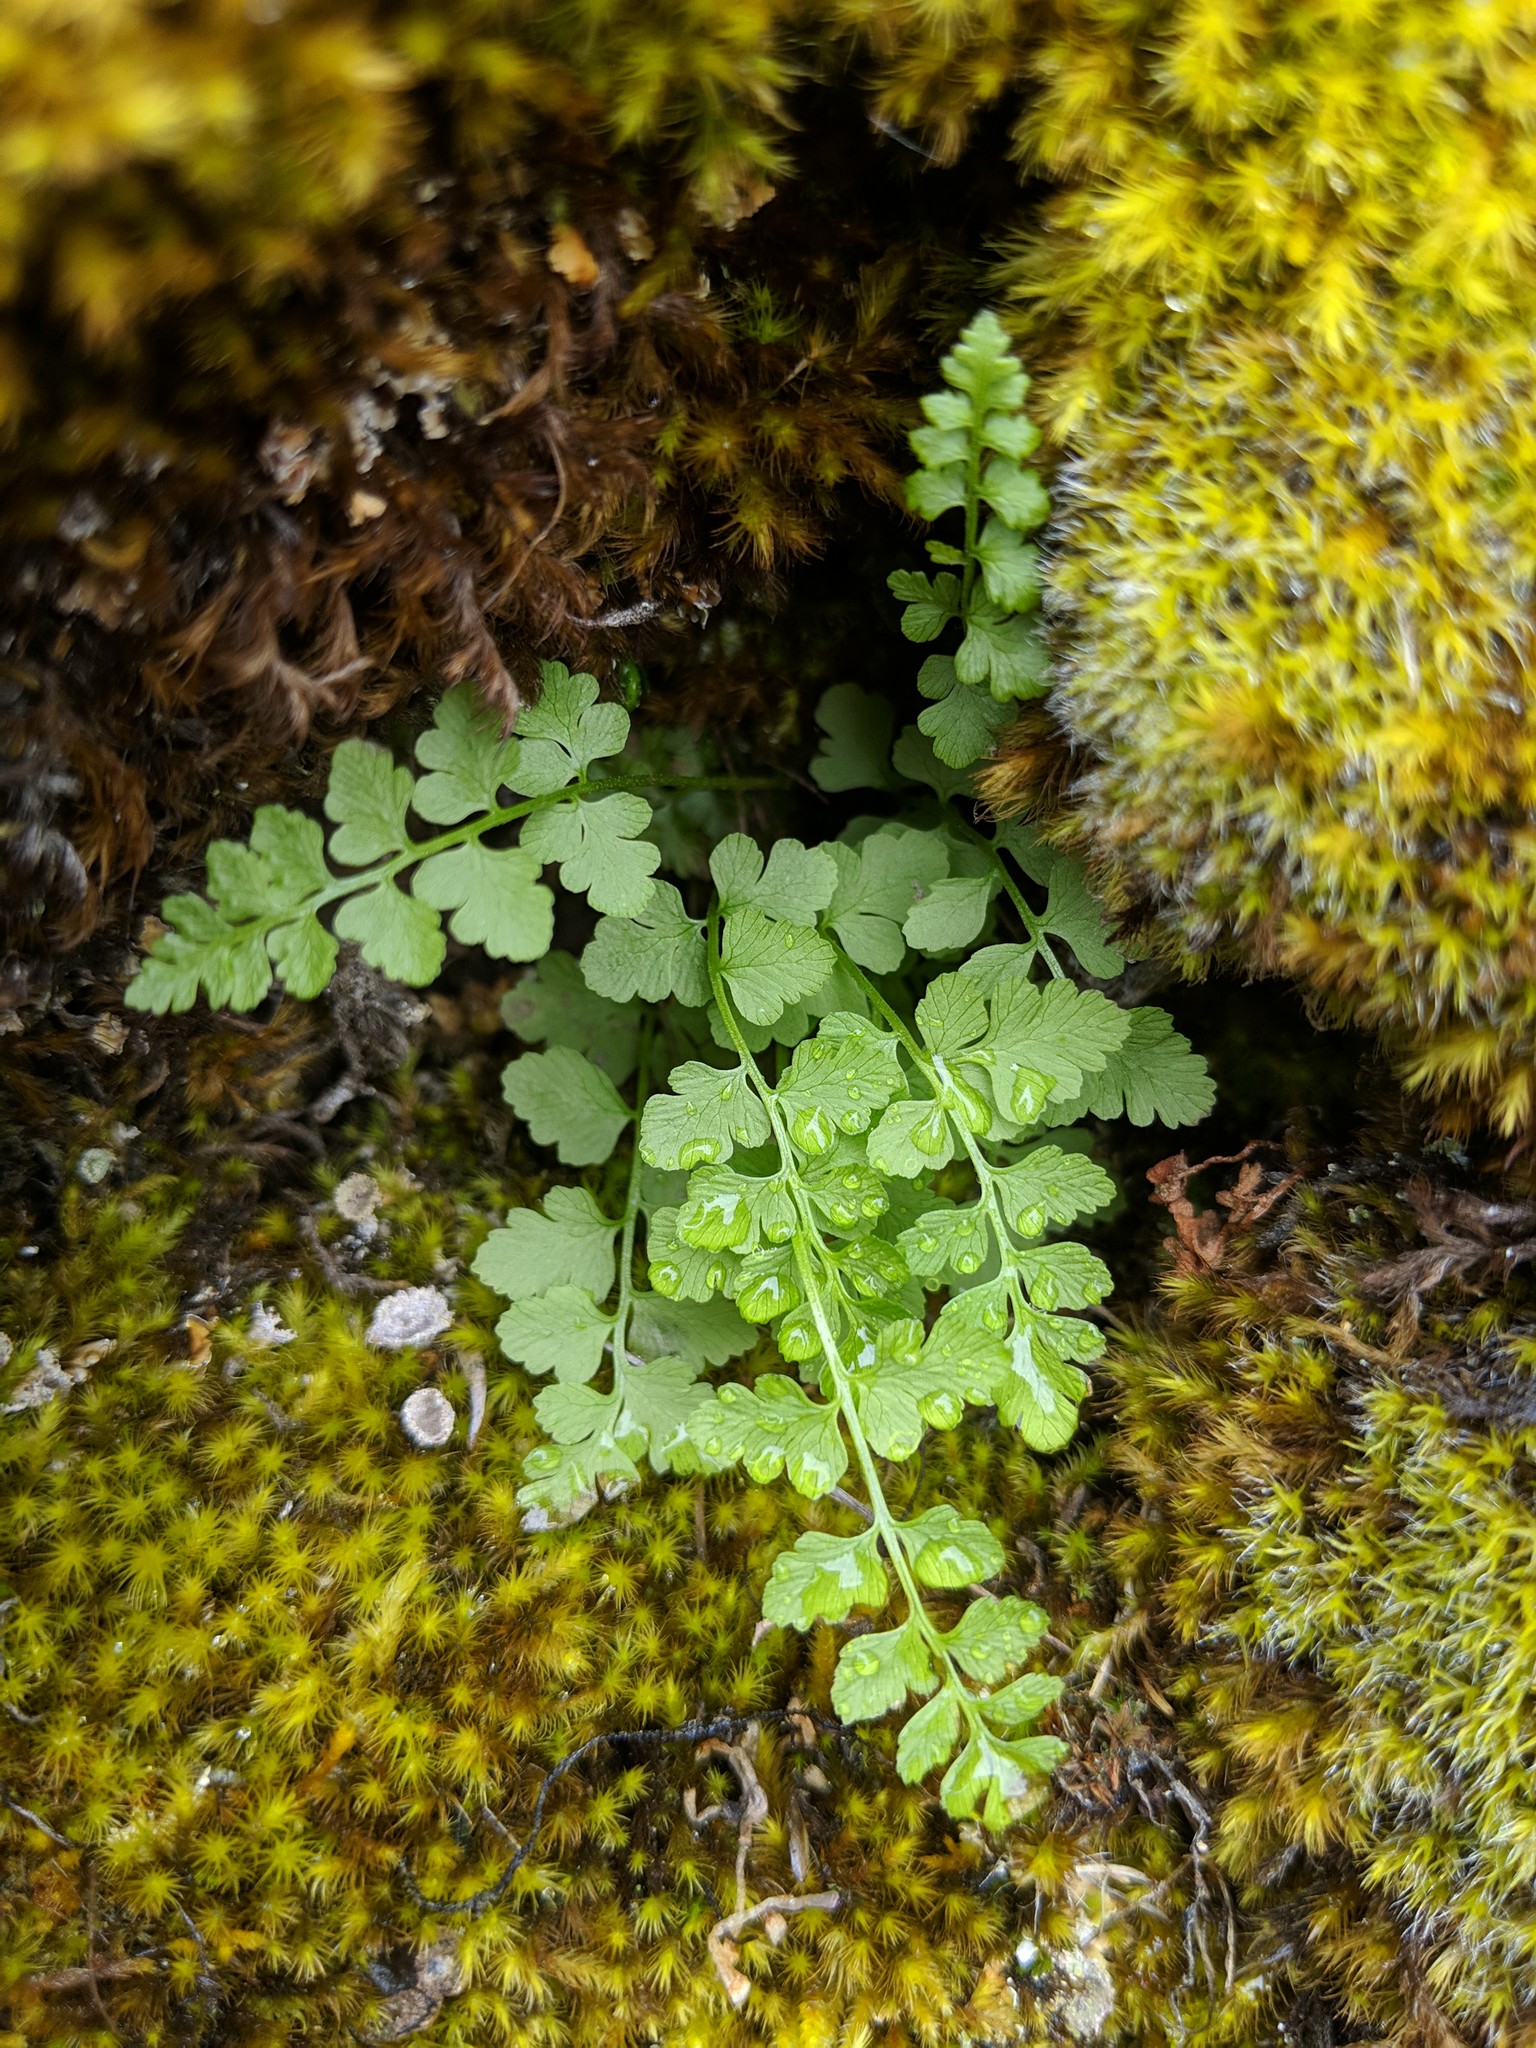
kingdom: Plantae
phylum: Tracheophyta
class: Polypodiopsida
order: Polypodiales
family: Cystopteridaceae
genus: Cystopteris
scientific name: Cystopteris fragilis
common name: Brittle bladder fern
